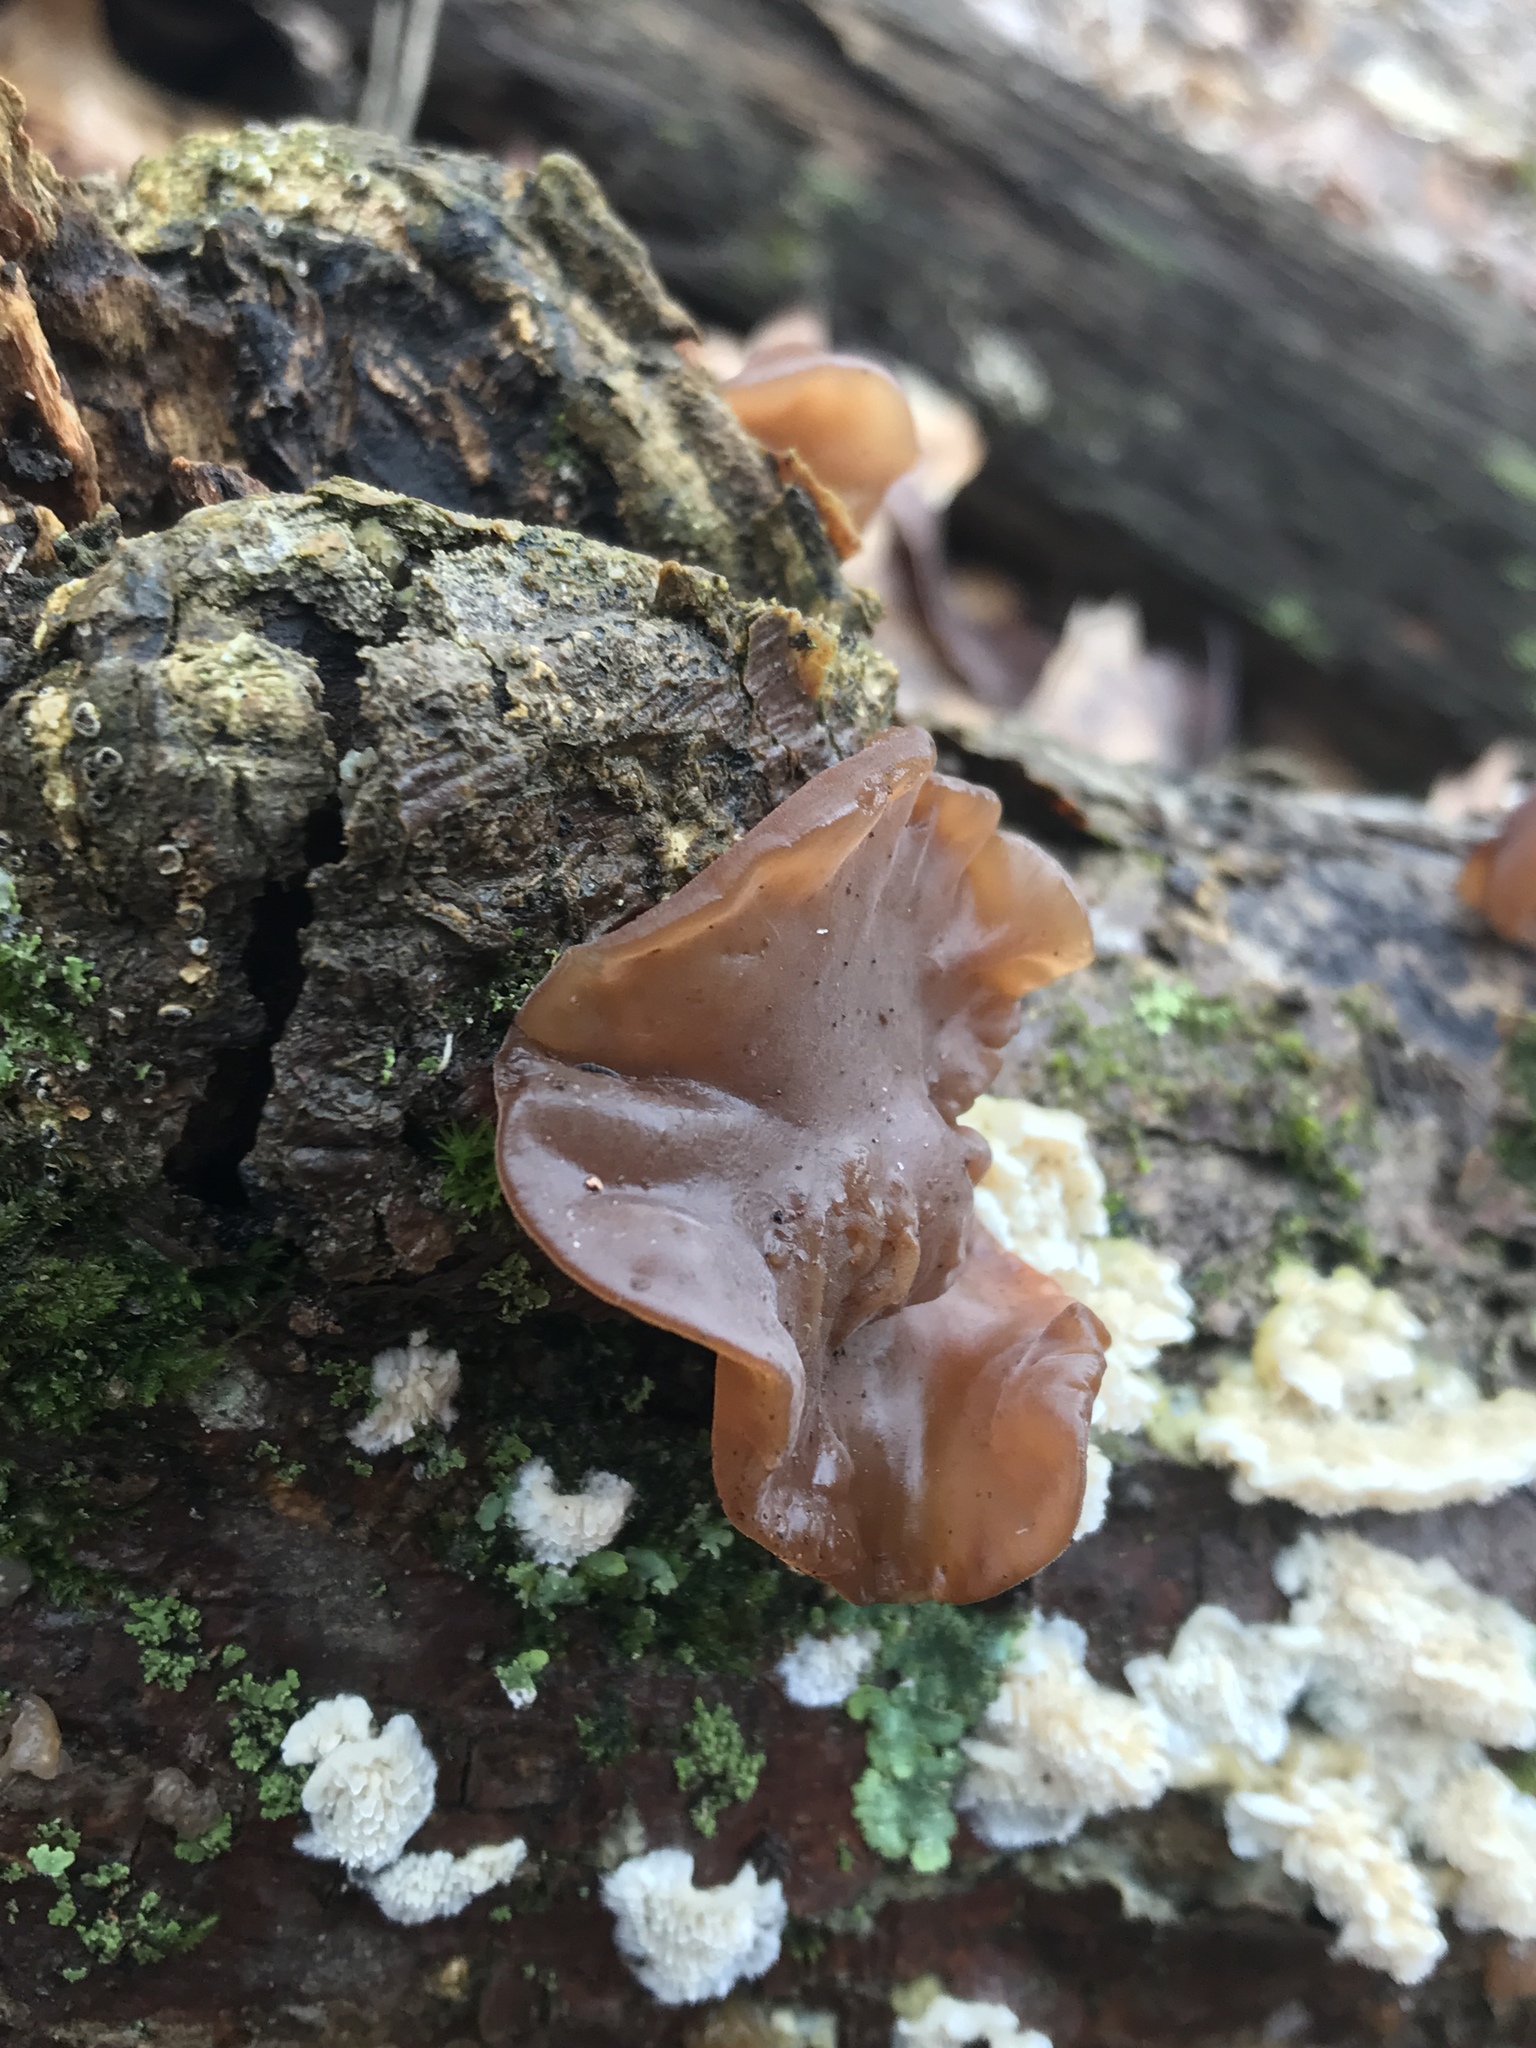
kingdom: Fungi
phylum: Basidiomycota
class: Agaricomycetes
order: Auriculariales
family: Auriculariaceae
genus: Auricularia
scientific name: Auricularia angiospermarum
